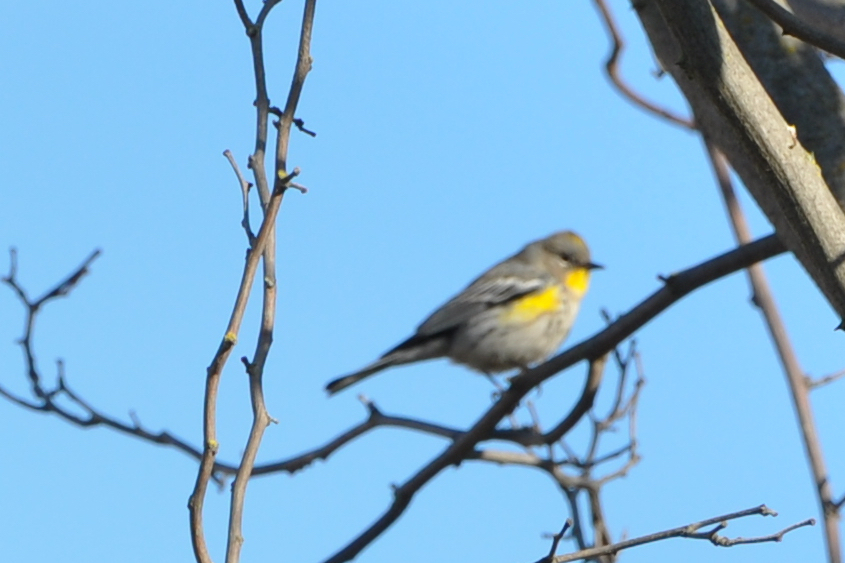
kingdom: Animalia
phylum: Chordata
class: Aves
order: Passeriformes
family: Parulidae
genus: Setophaga
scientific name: Setophaga coronata
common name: Myrtle warbler
